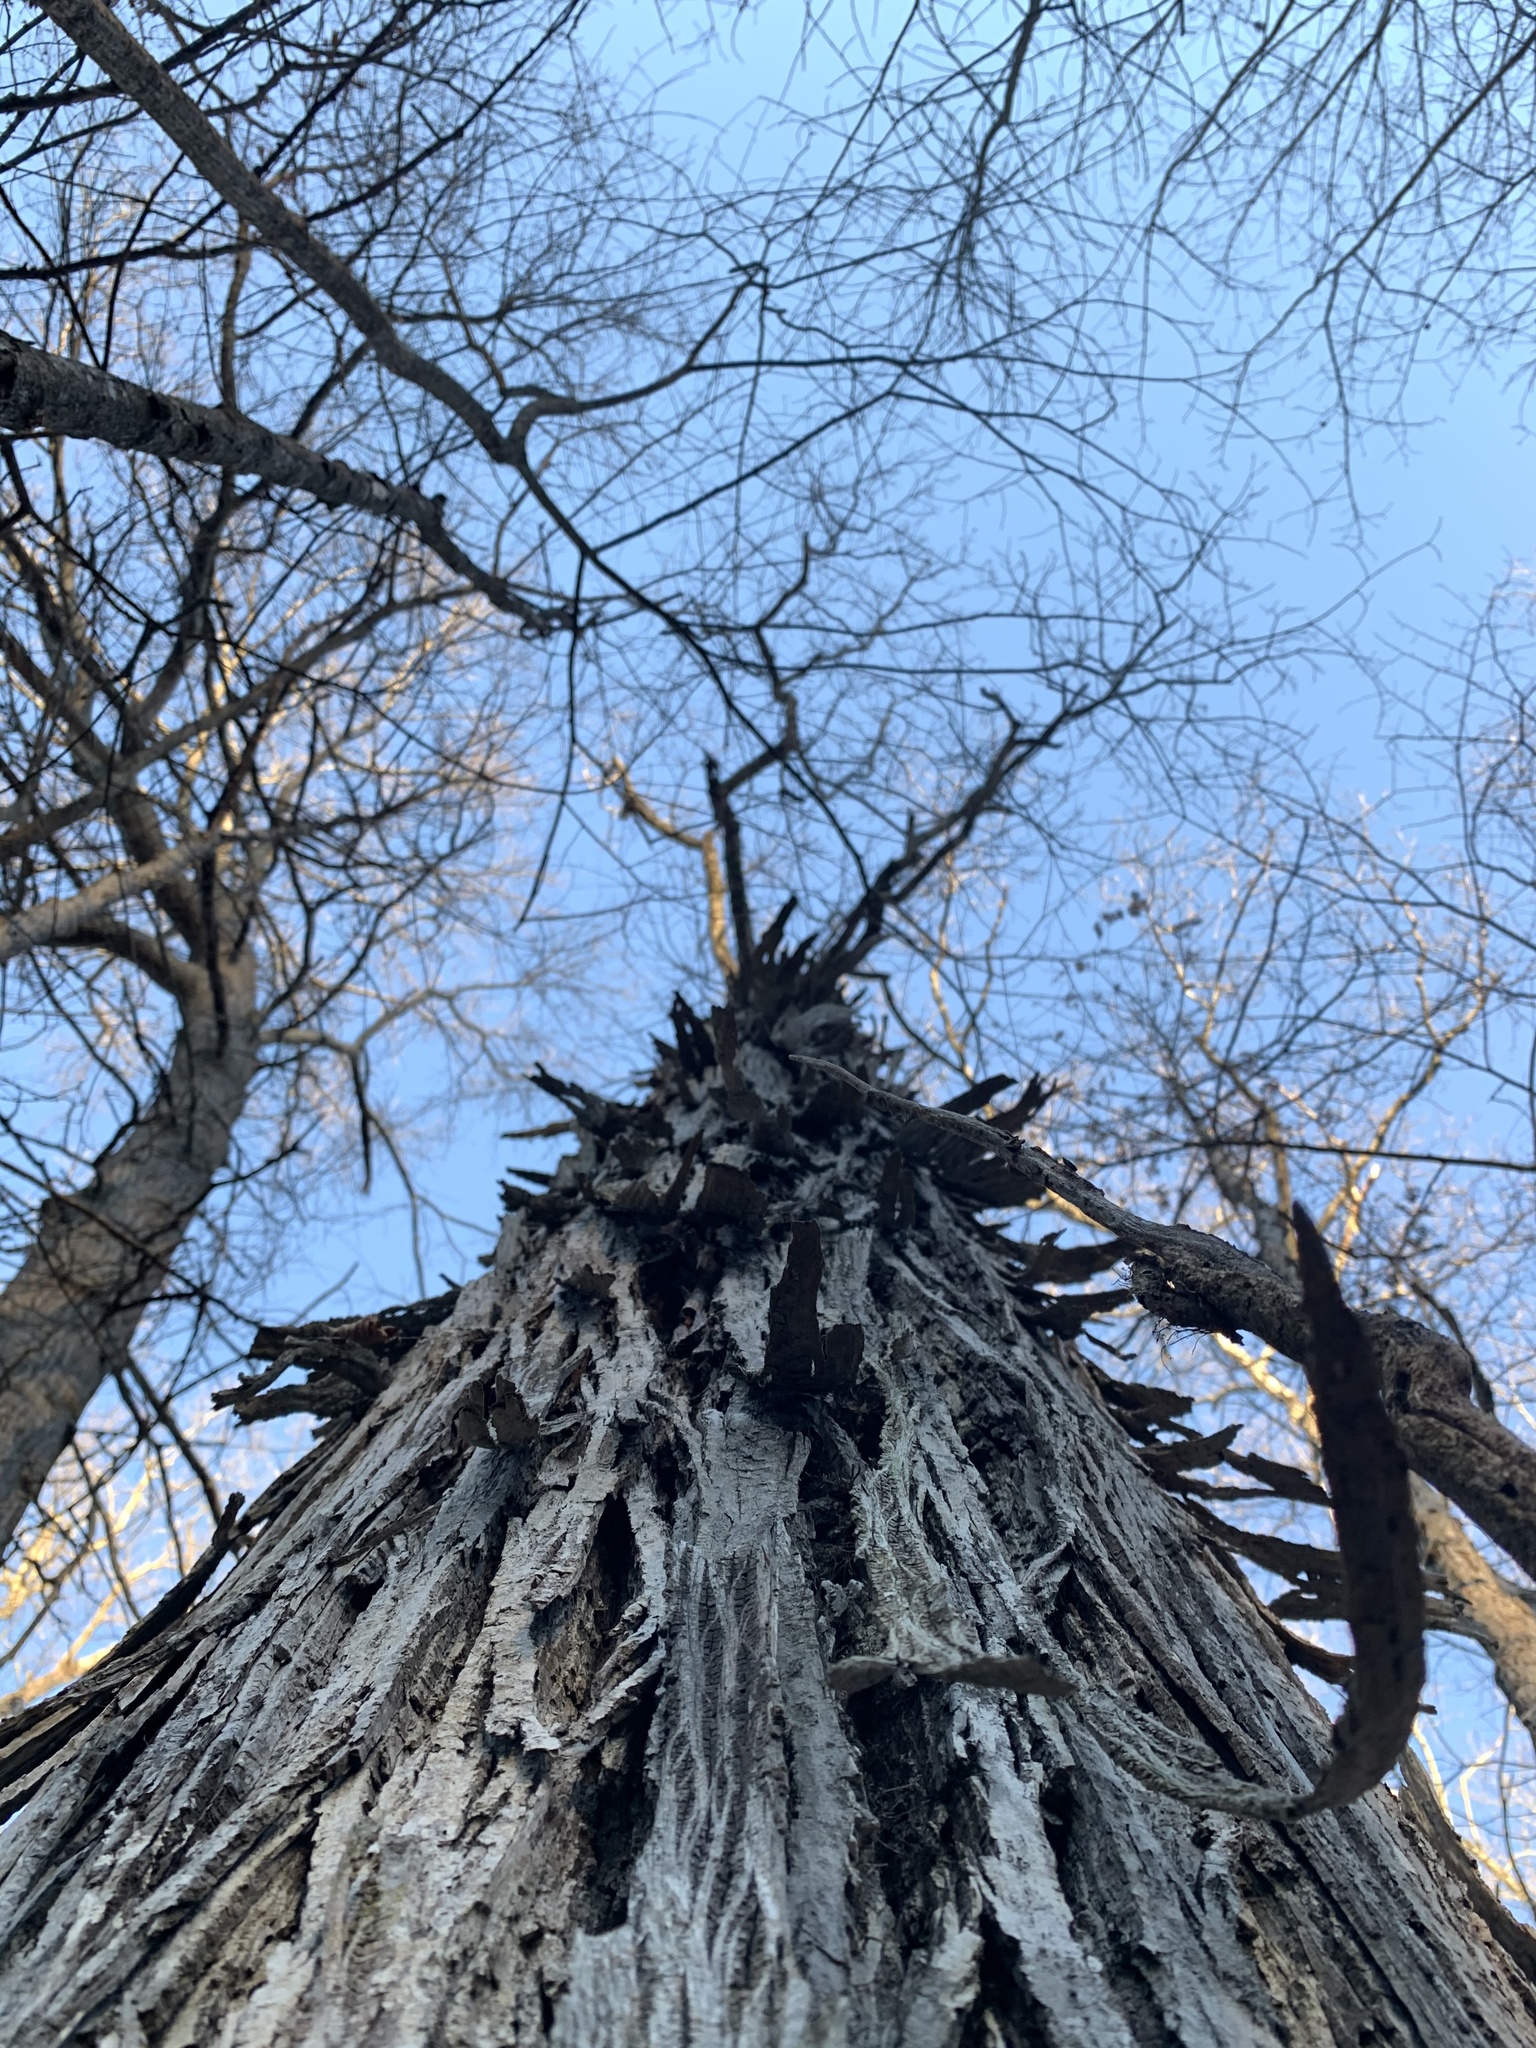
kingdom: Plantae
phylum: Tracheophyta
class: Magnoliopsida
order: Fagales
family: Juglandaceae
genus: Carya
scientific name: Carya ovata
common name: Shagbark hickory
